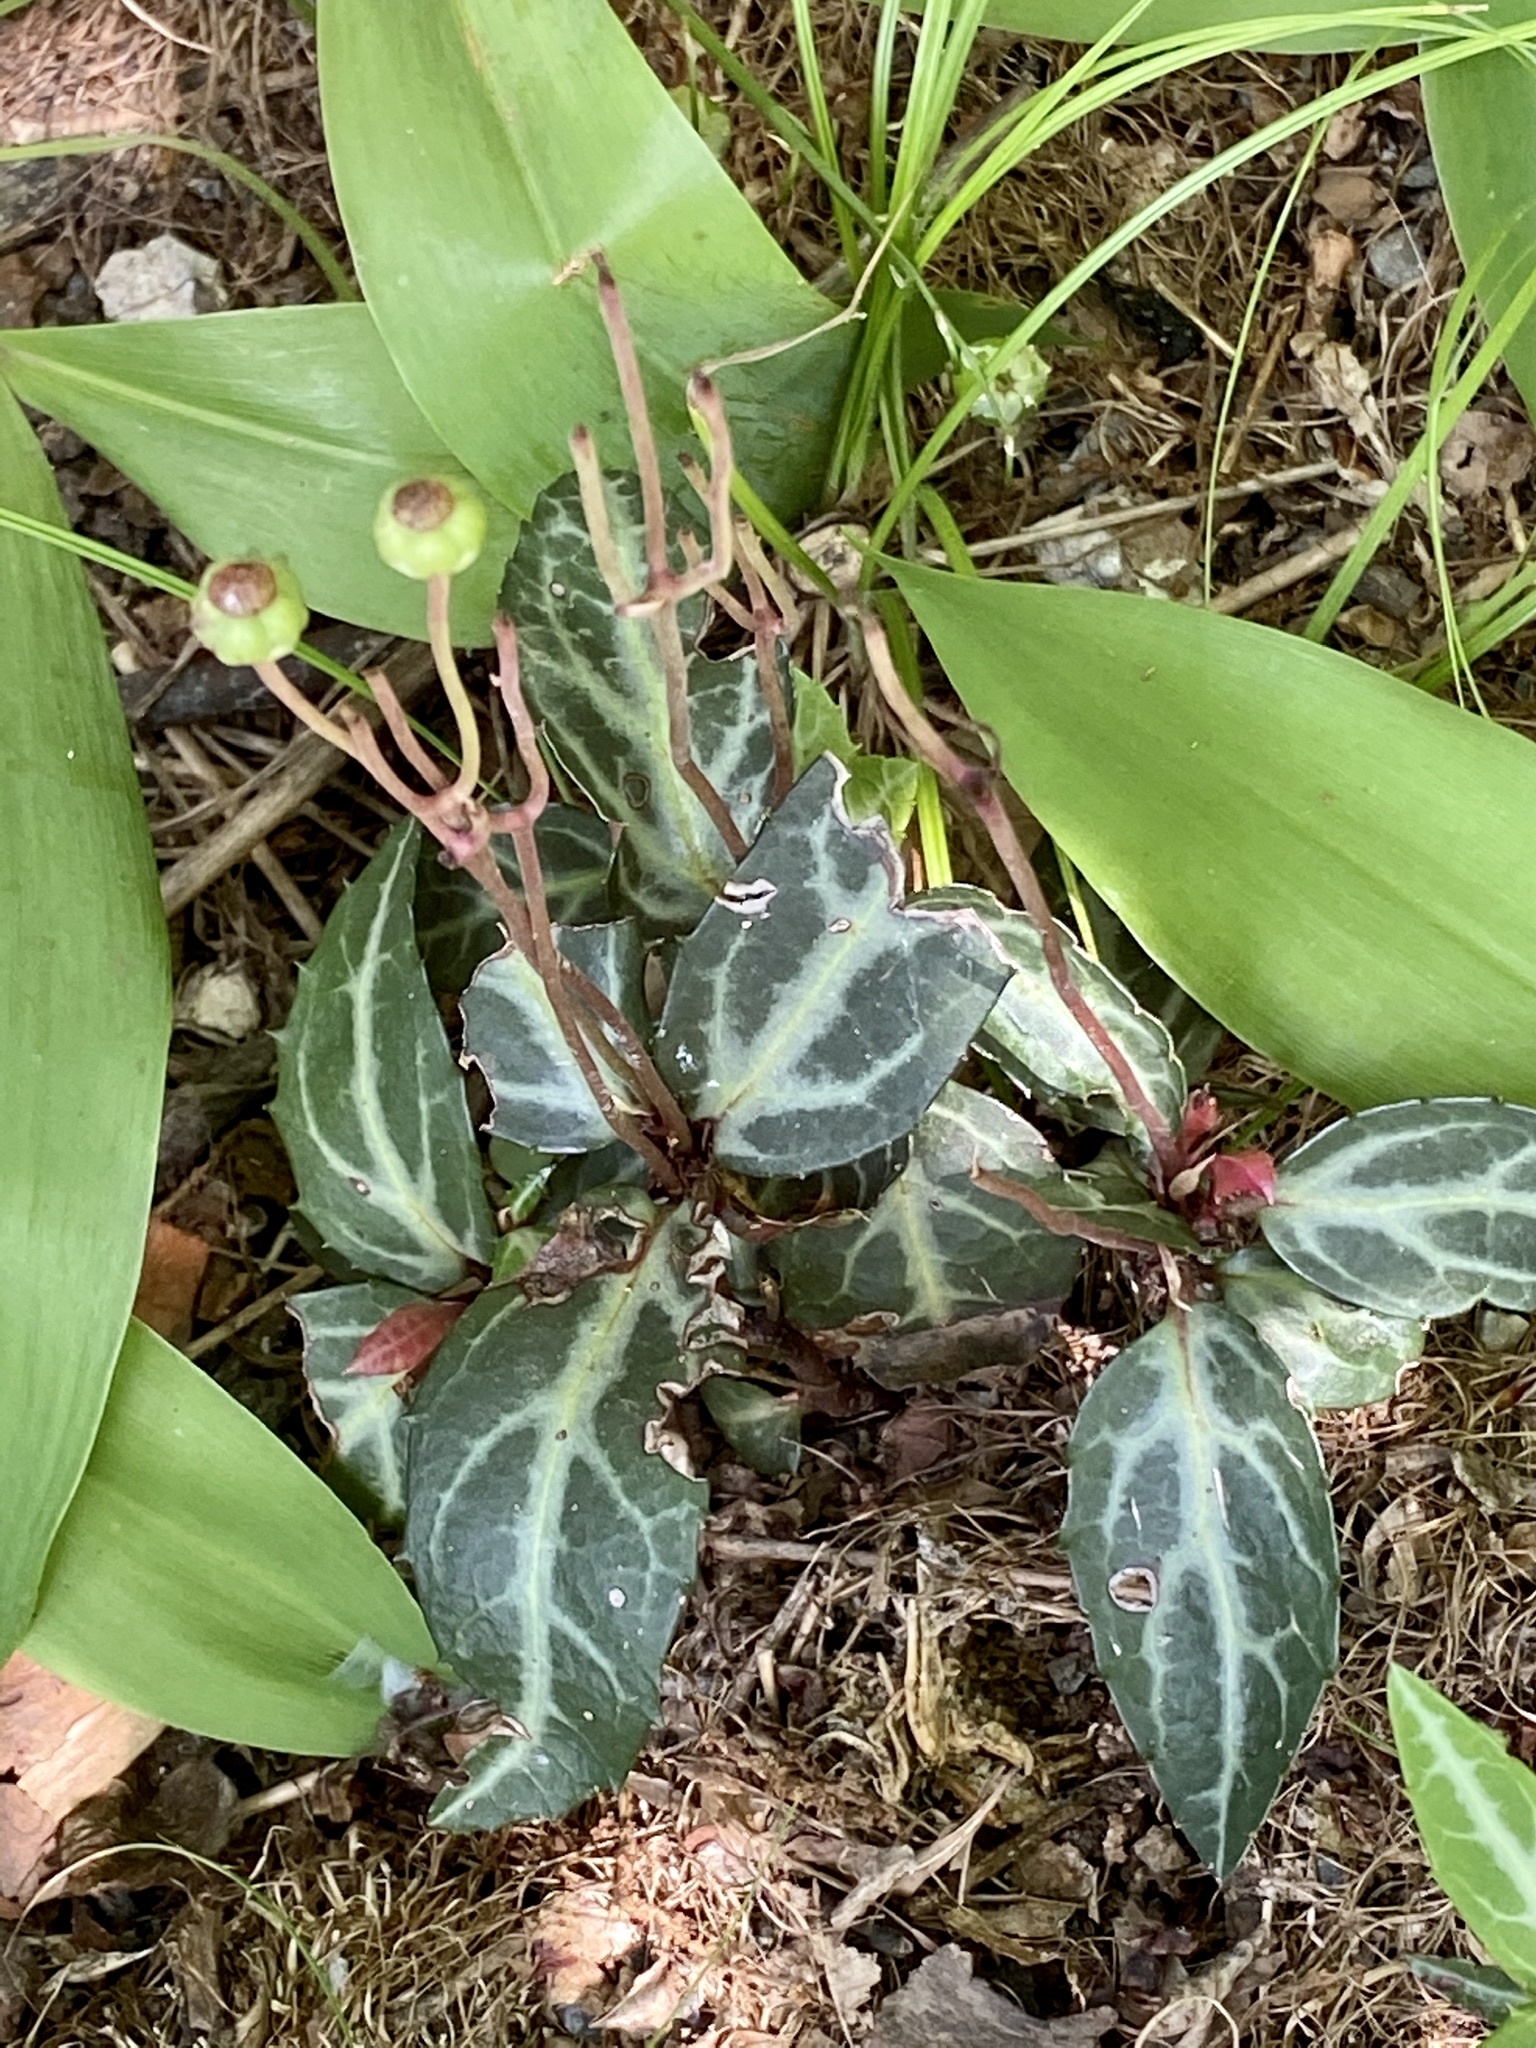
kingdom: Plantae
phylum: Tracheophyta
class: Magnoliopsida
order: Ericales
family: Ericaceae
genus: Chimaphila
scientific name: Chimaphila maculata
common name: Spotted pipsissewa
